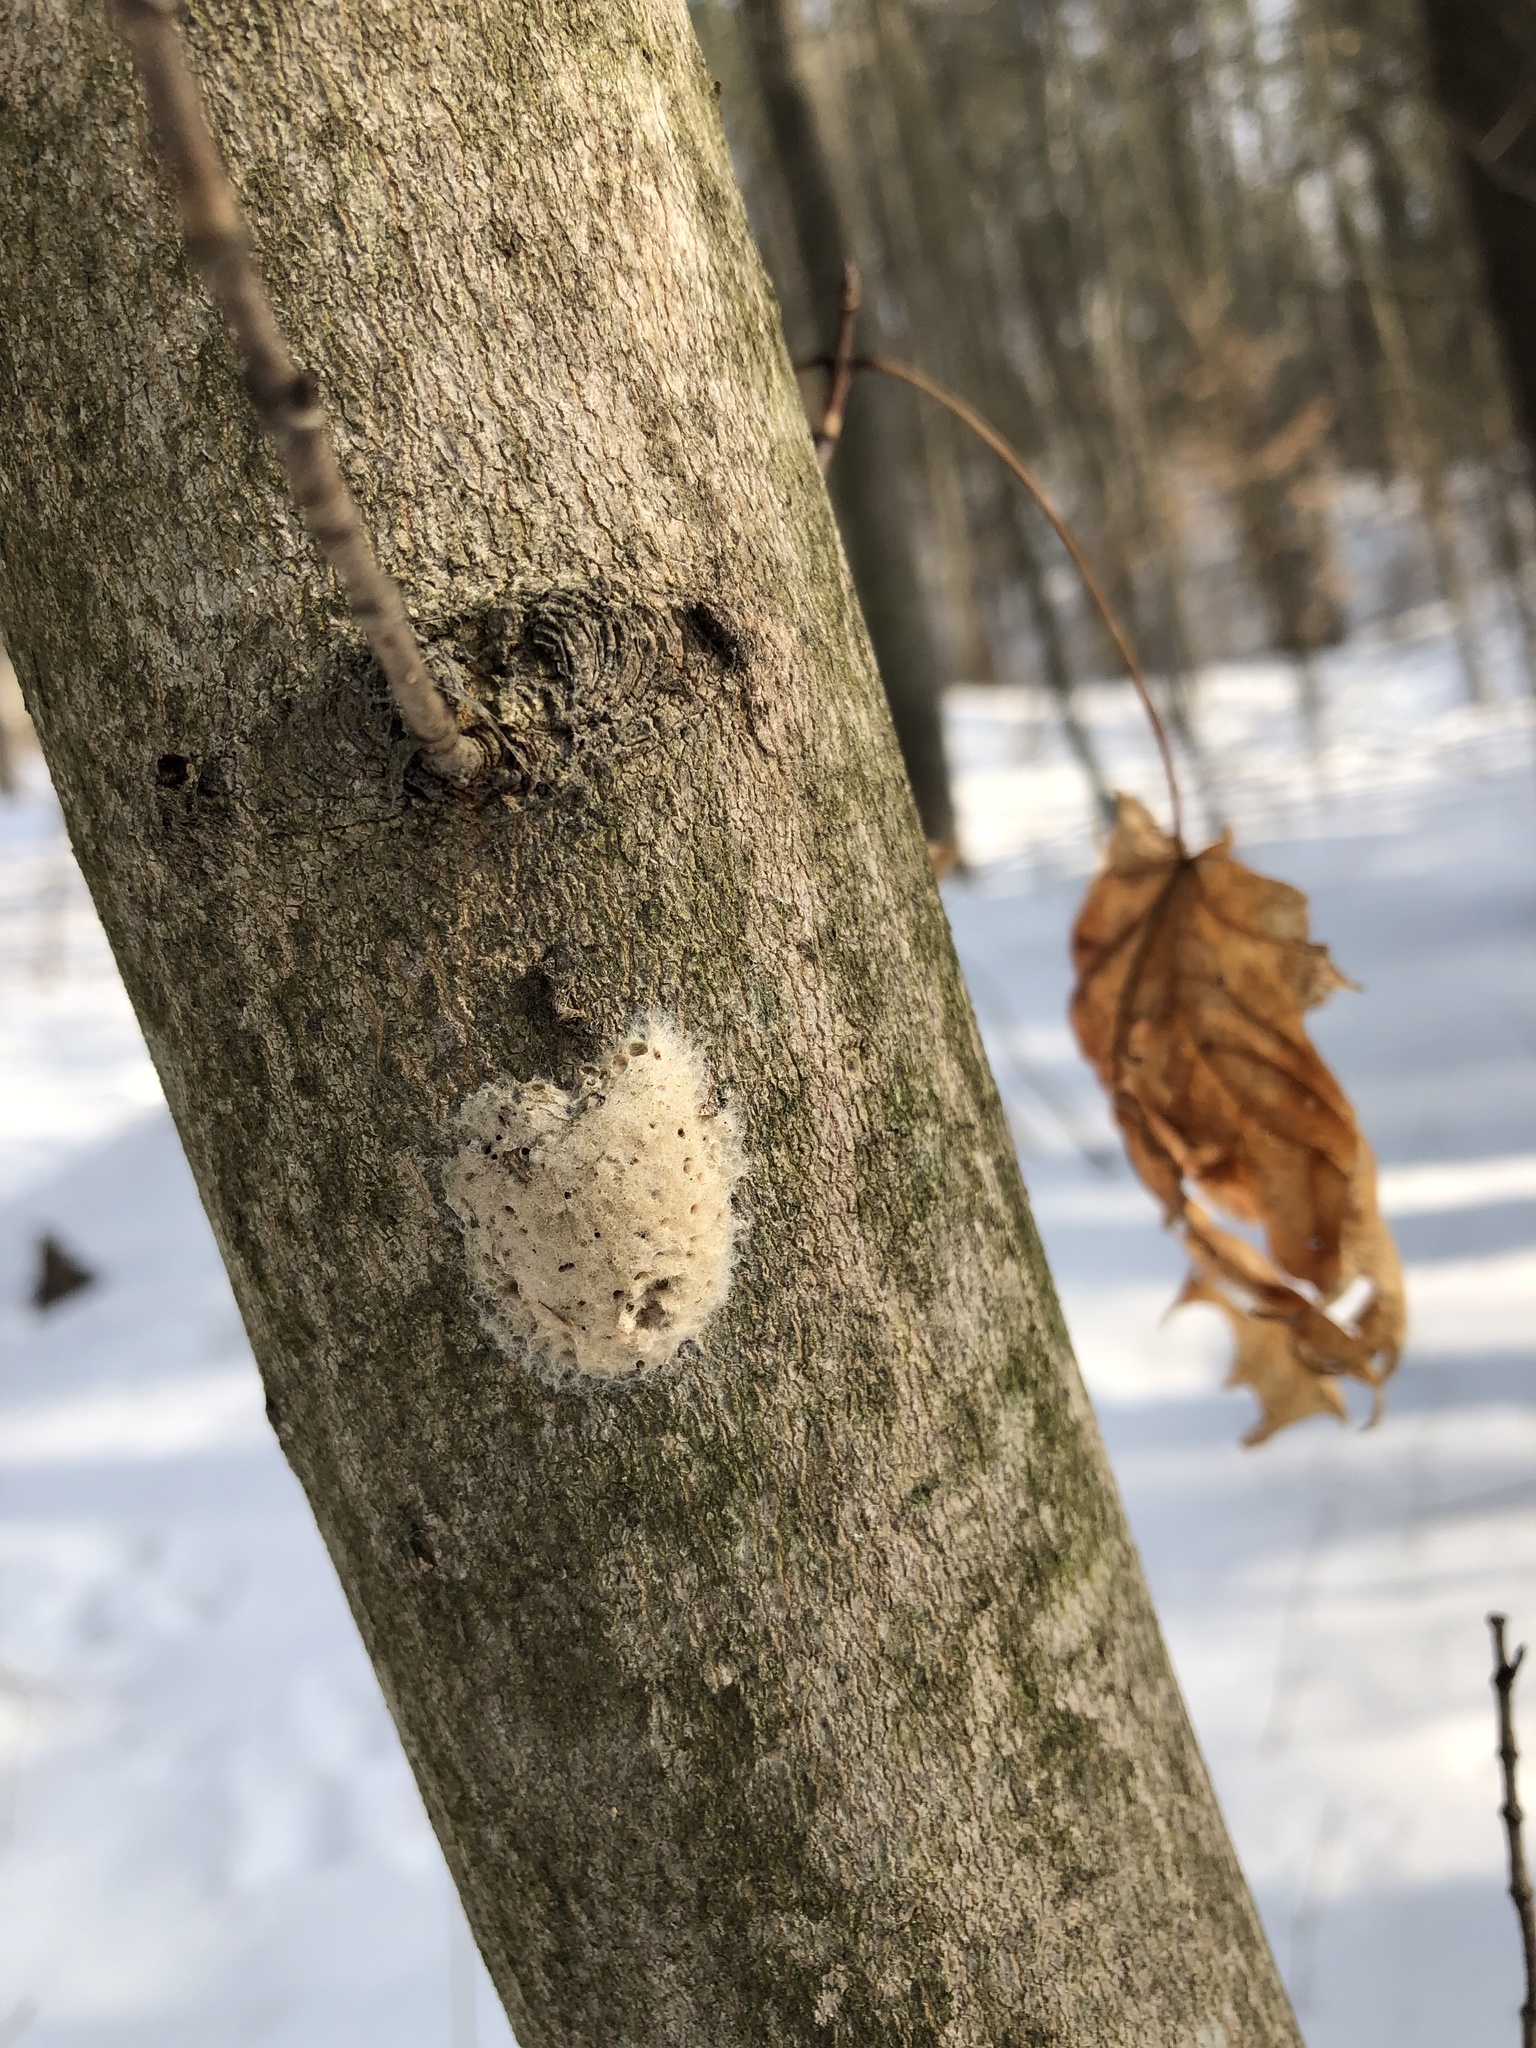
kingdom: Animalia
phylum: Arthropoda
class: Insecta
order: Lepidoptera
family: Erebidae
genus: Lymantria
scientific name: Lymantria dispar
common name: Gypsy moth
